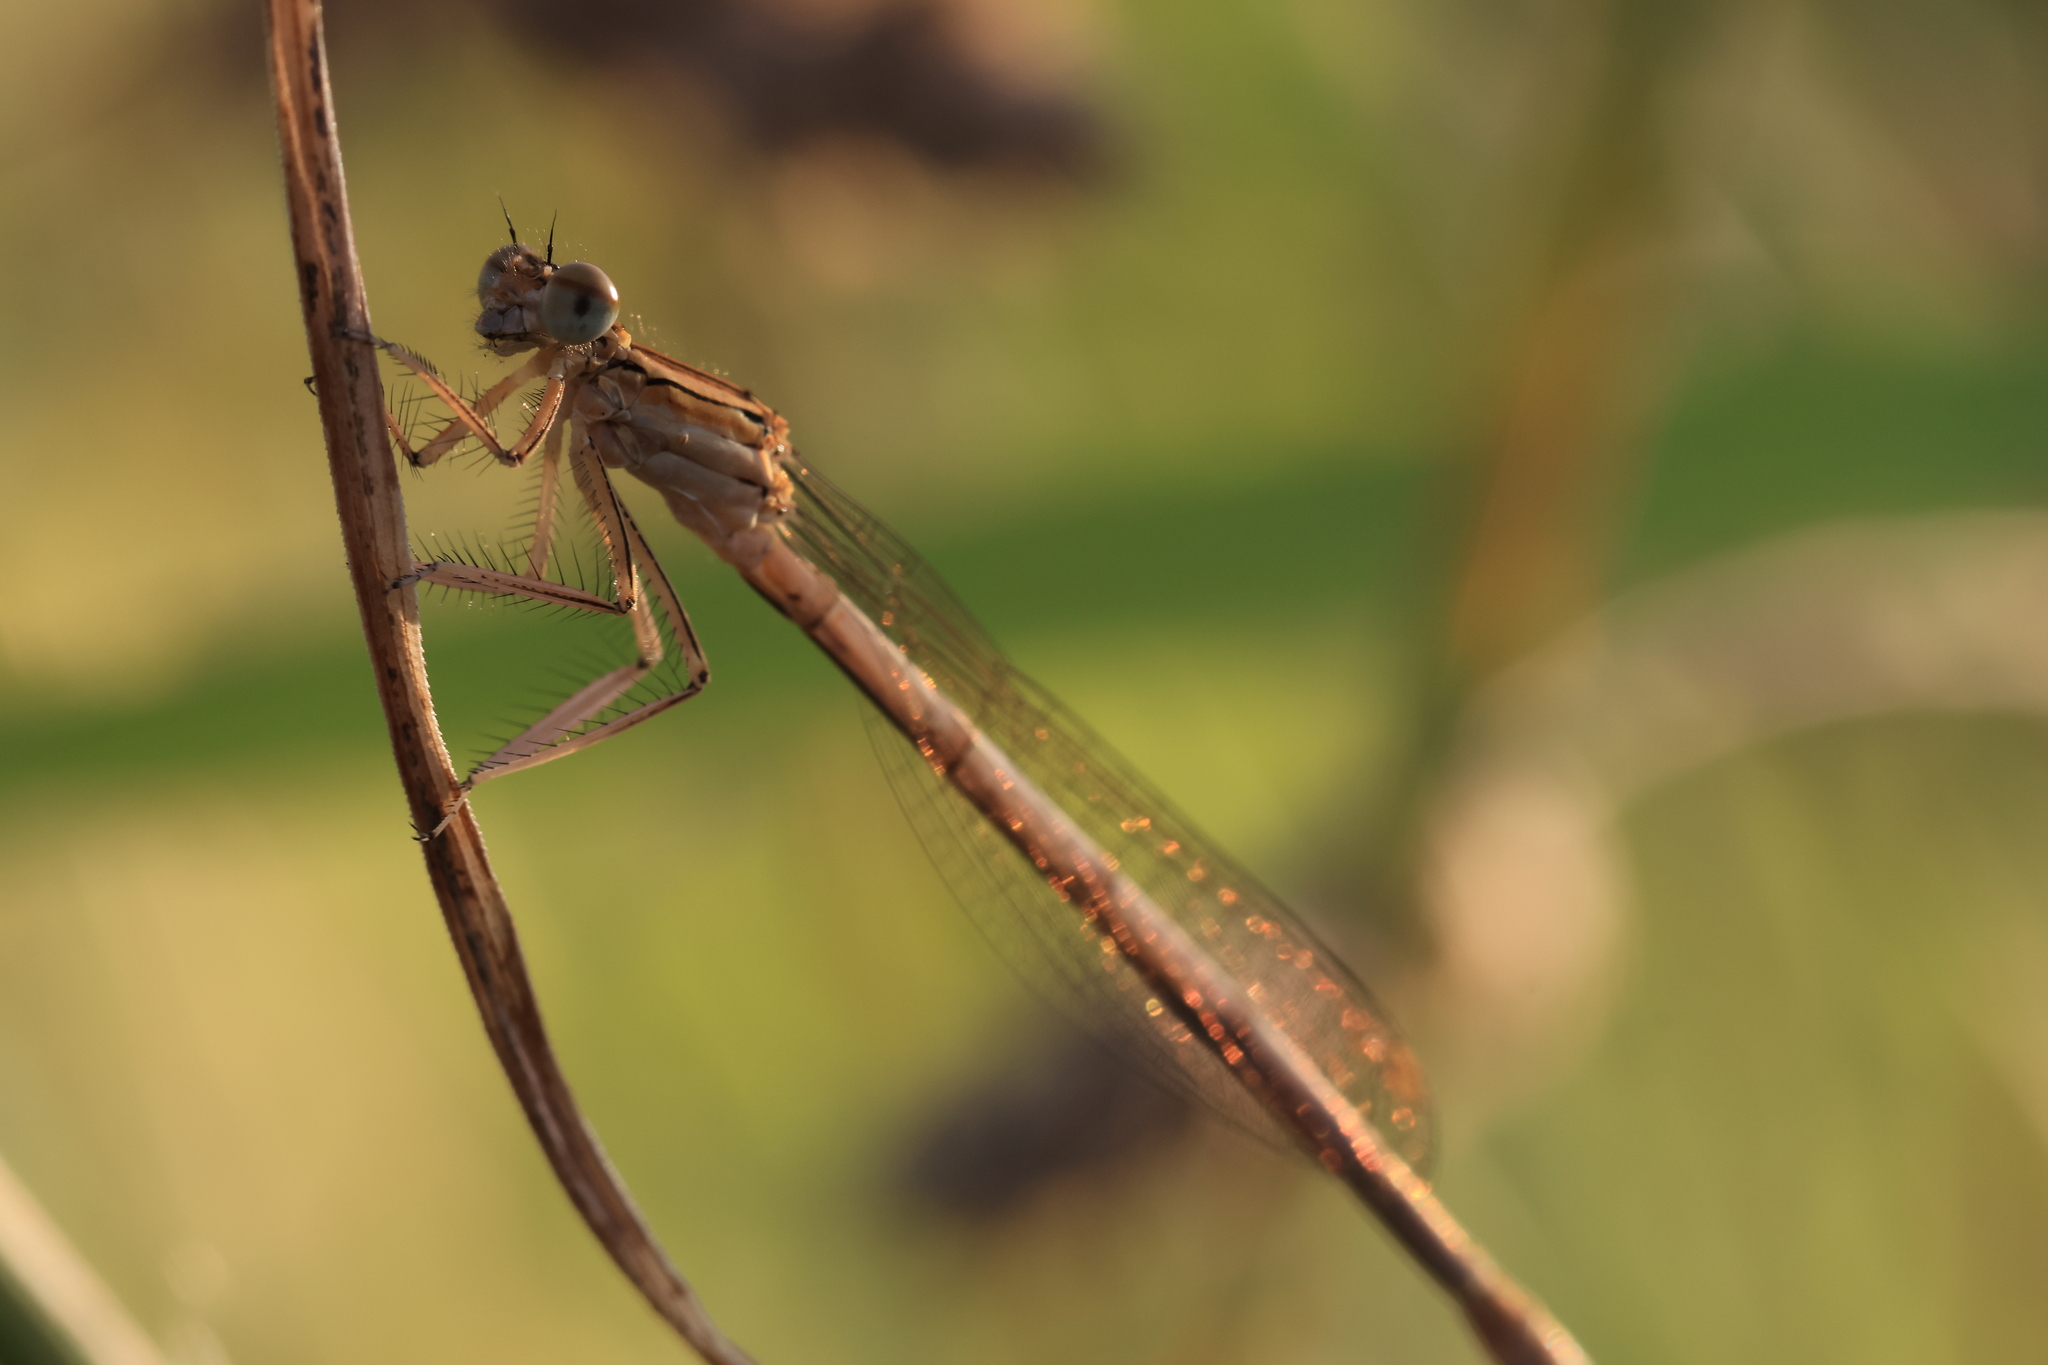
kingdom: Animalia
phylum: Arthropoda
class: Insecta
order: Odonata
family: Platycnemididae
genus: Platycnemis
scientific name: Platycnemis pennipes
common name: White-legged damselfly
